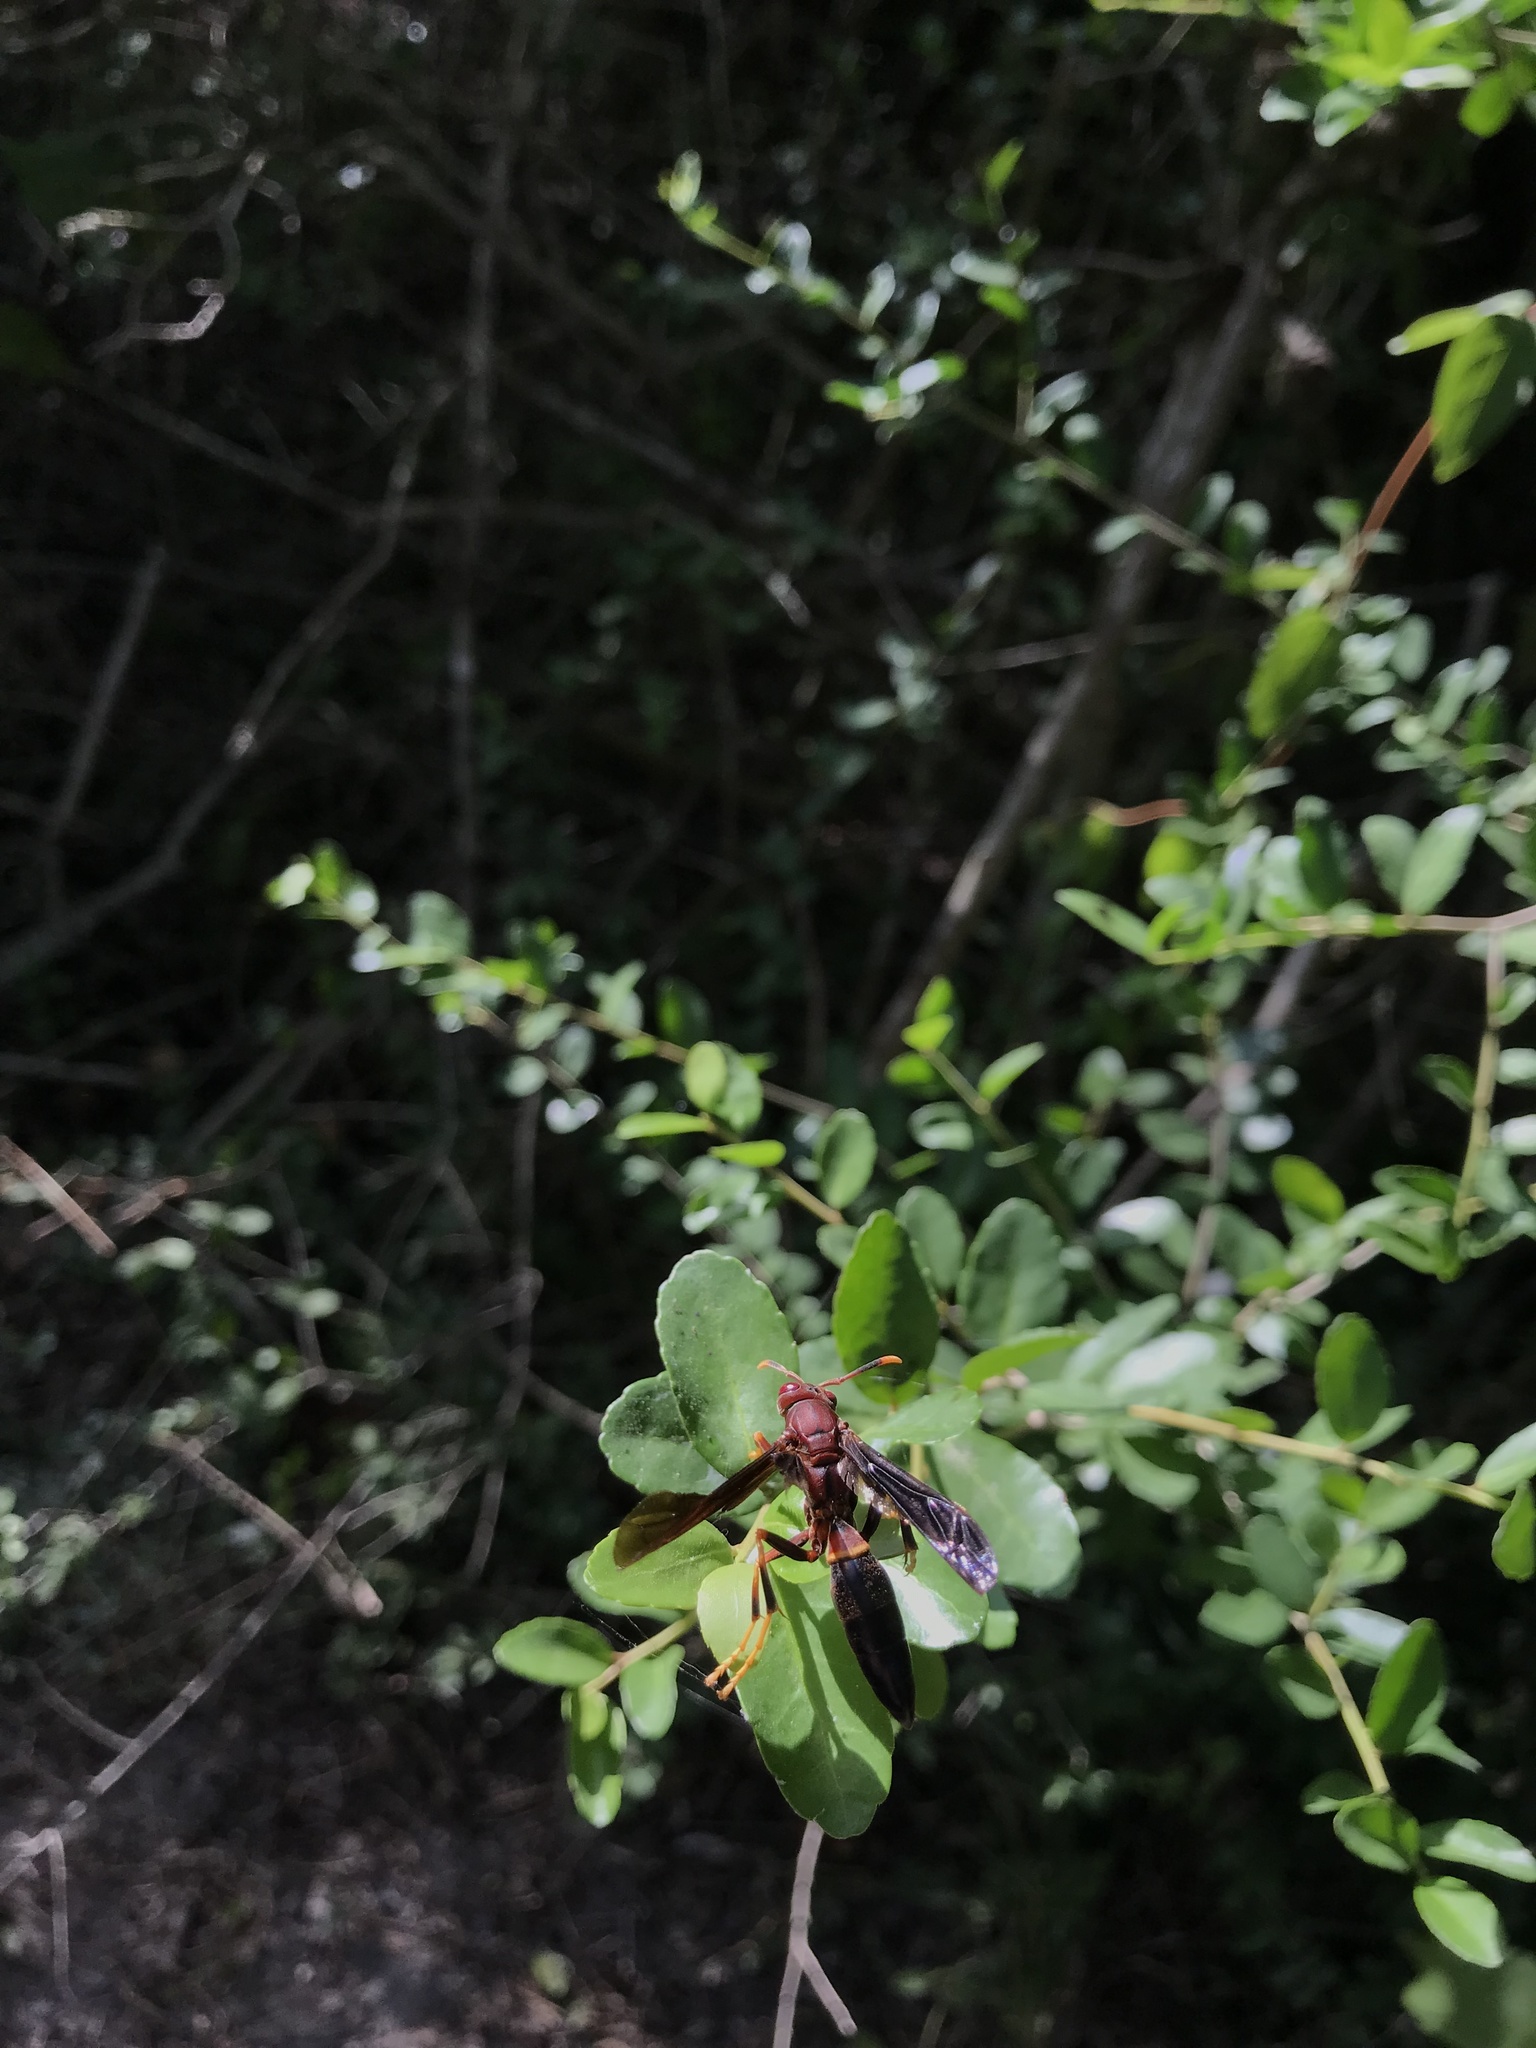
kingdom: Animalia
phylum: Arthropoda
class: Insecta
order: Hymenoptera
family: Eumenidae
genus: Polistes
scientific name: Polistes annularis
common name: Ringed paper wasp
